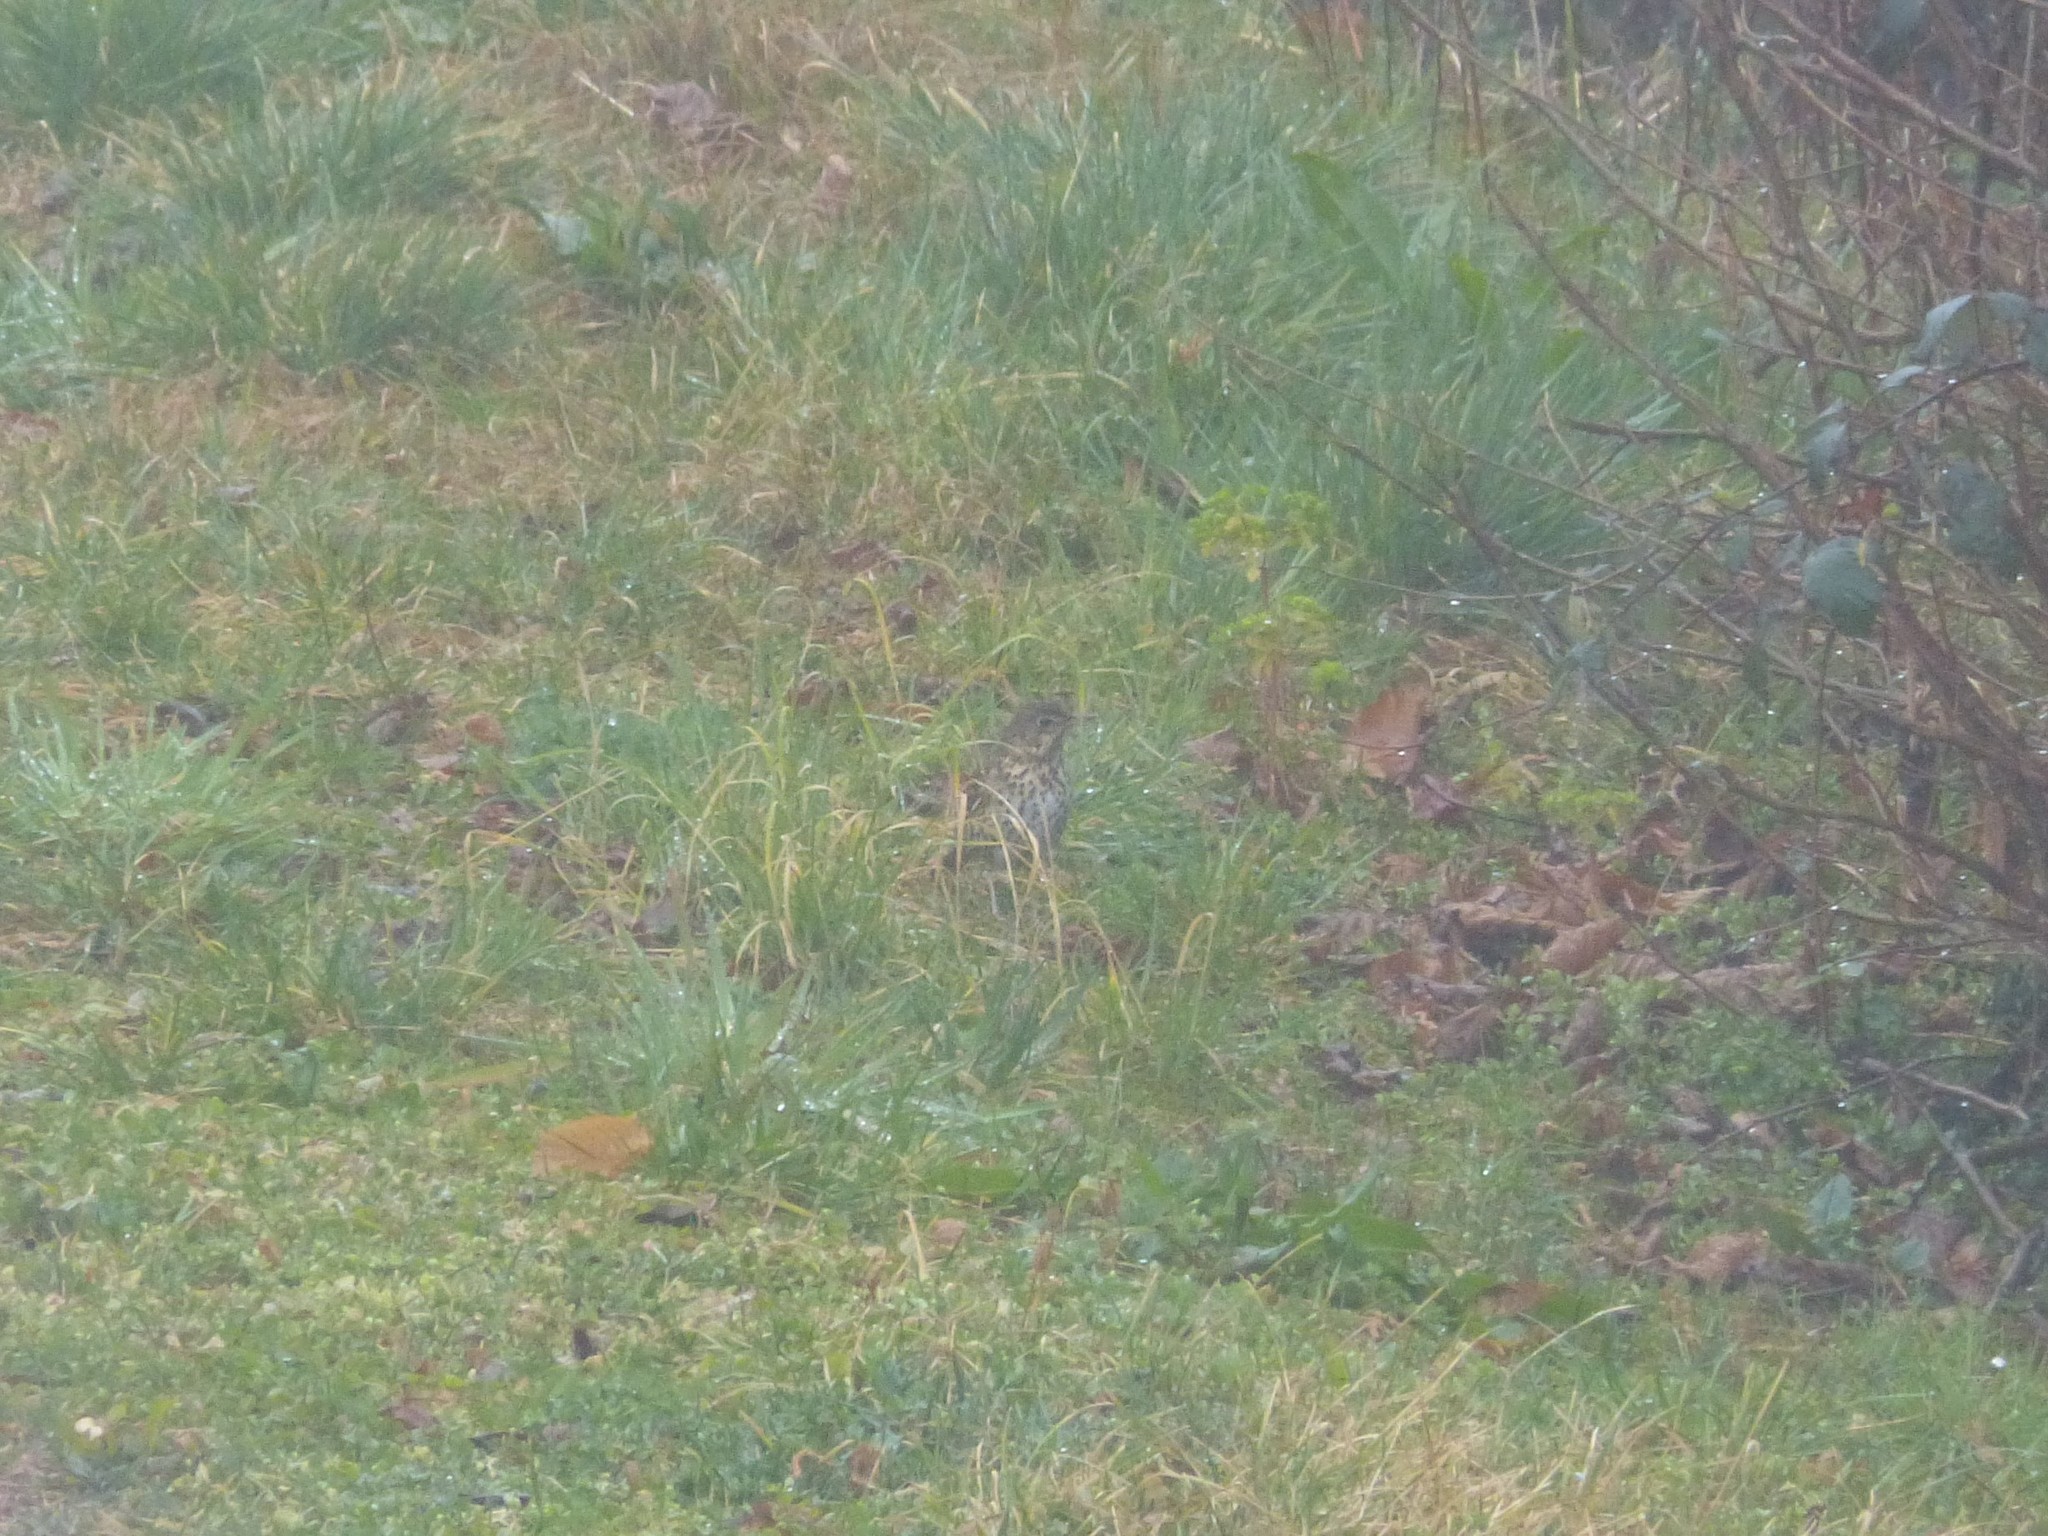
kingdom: Animalia
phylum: Chordata
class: Aves
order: Passeriformes
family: Turdidae
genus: Turdus
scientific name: Turdus philomelos
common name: Song thrush
